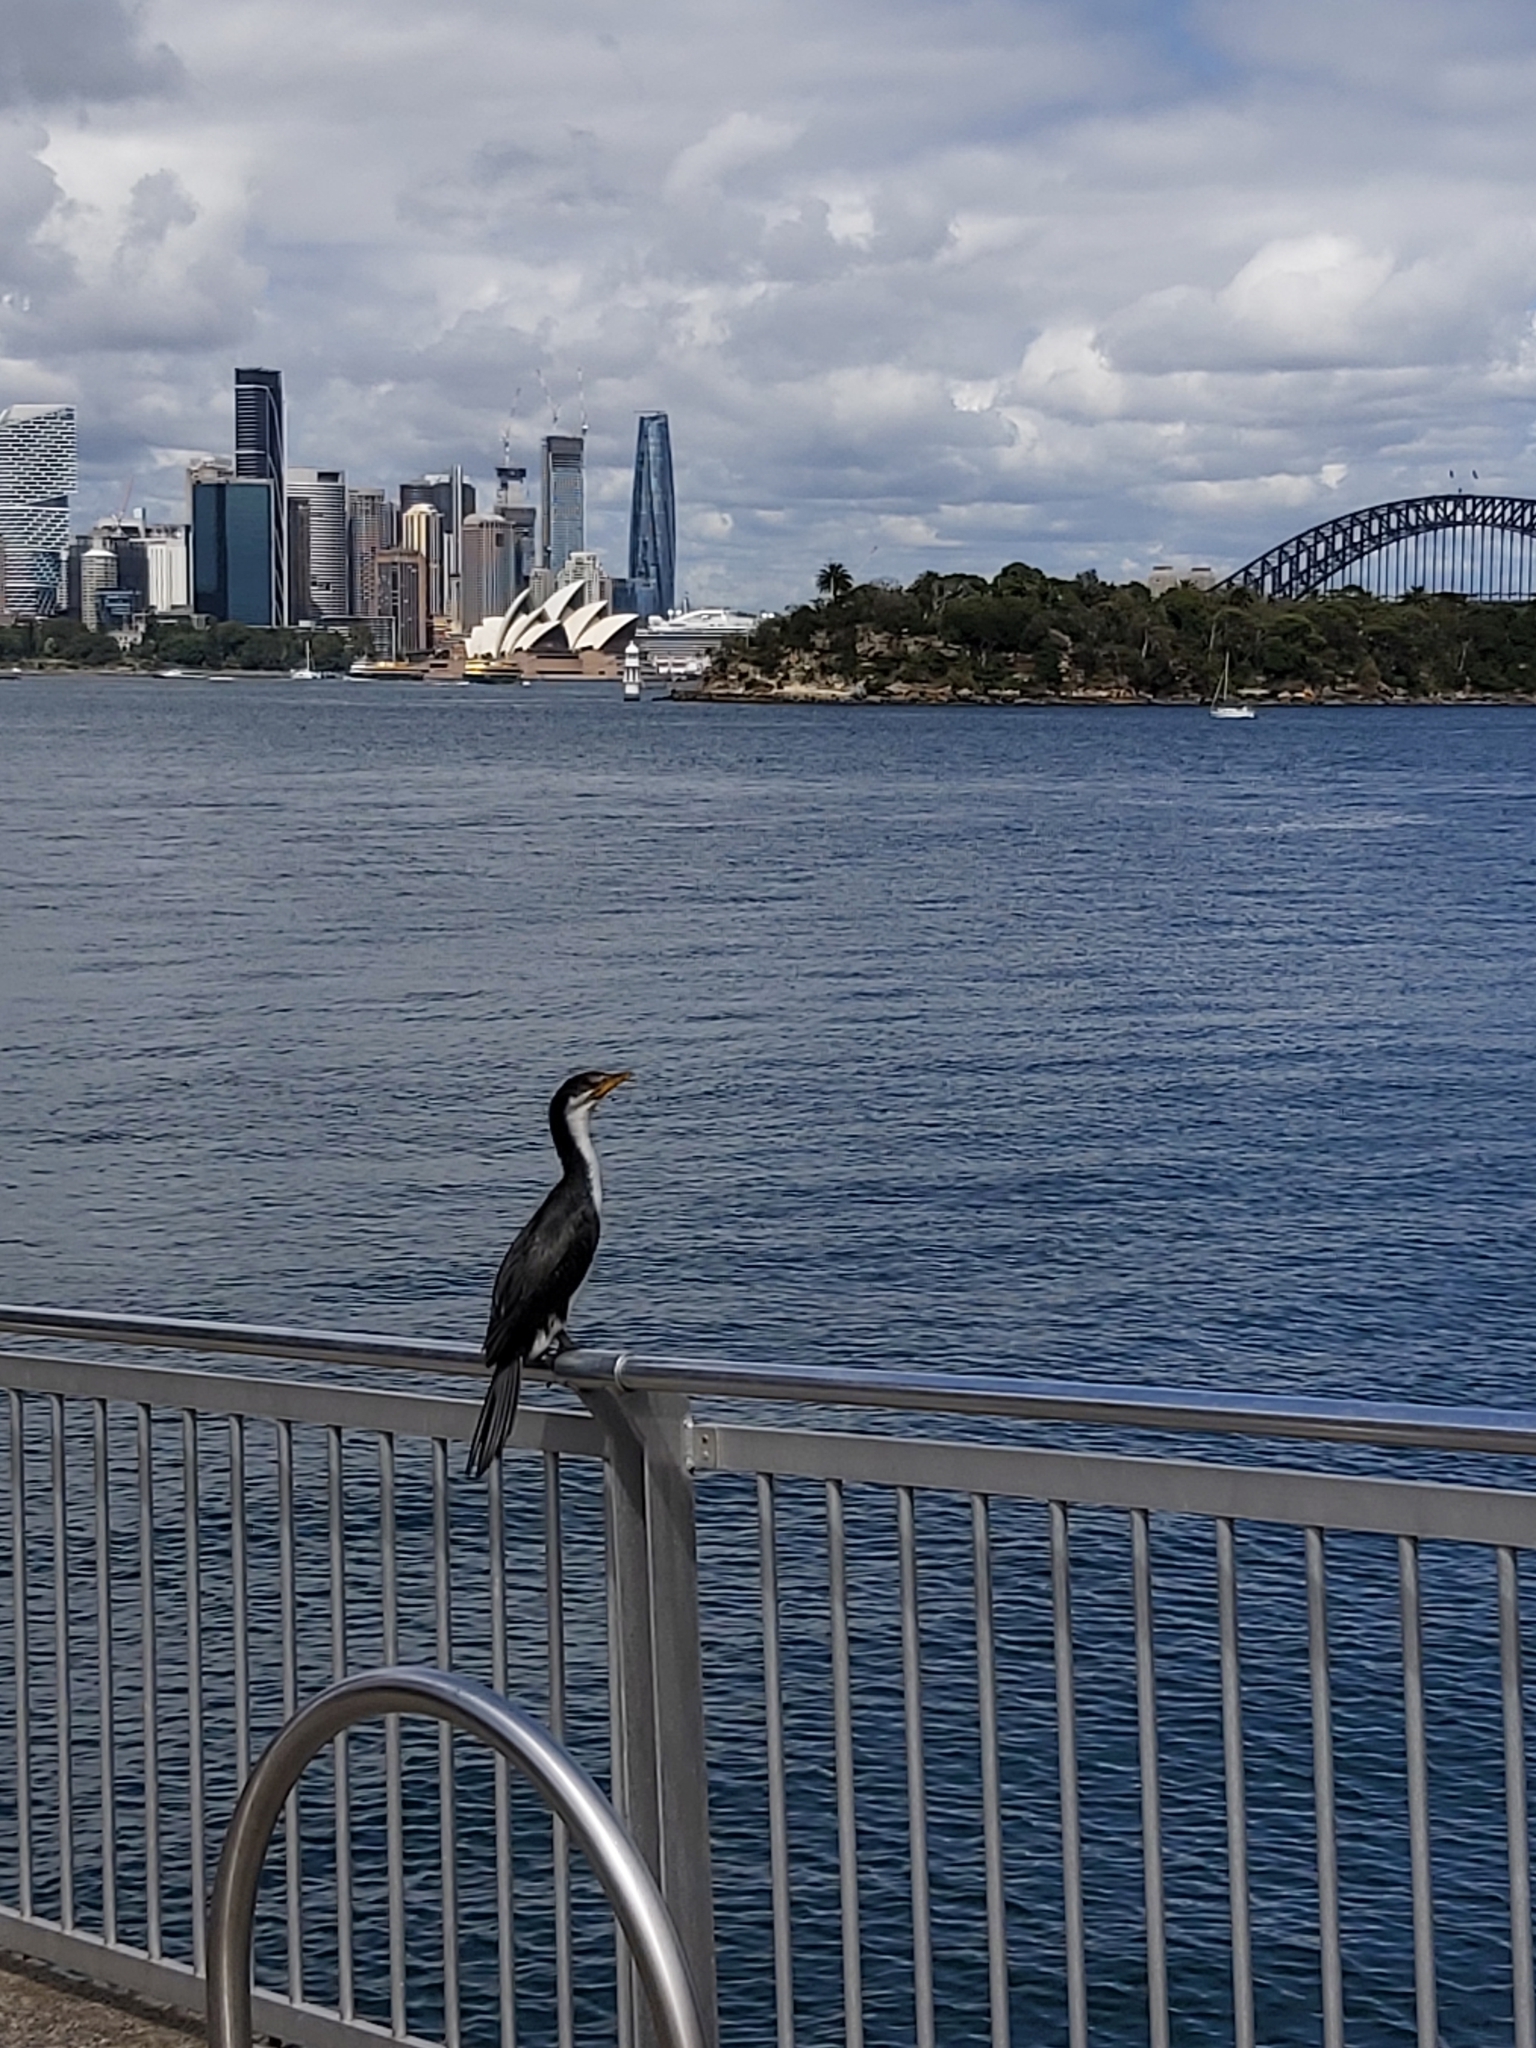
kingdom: Animalia
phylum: Chordata
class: Aves
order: Suliformes
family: Phalacrocoracidae
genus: Microcarbo
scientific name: Microcarbo melanoleucos
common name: Little pied cormorant
